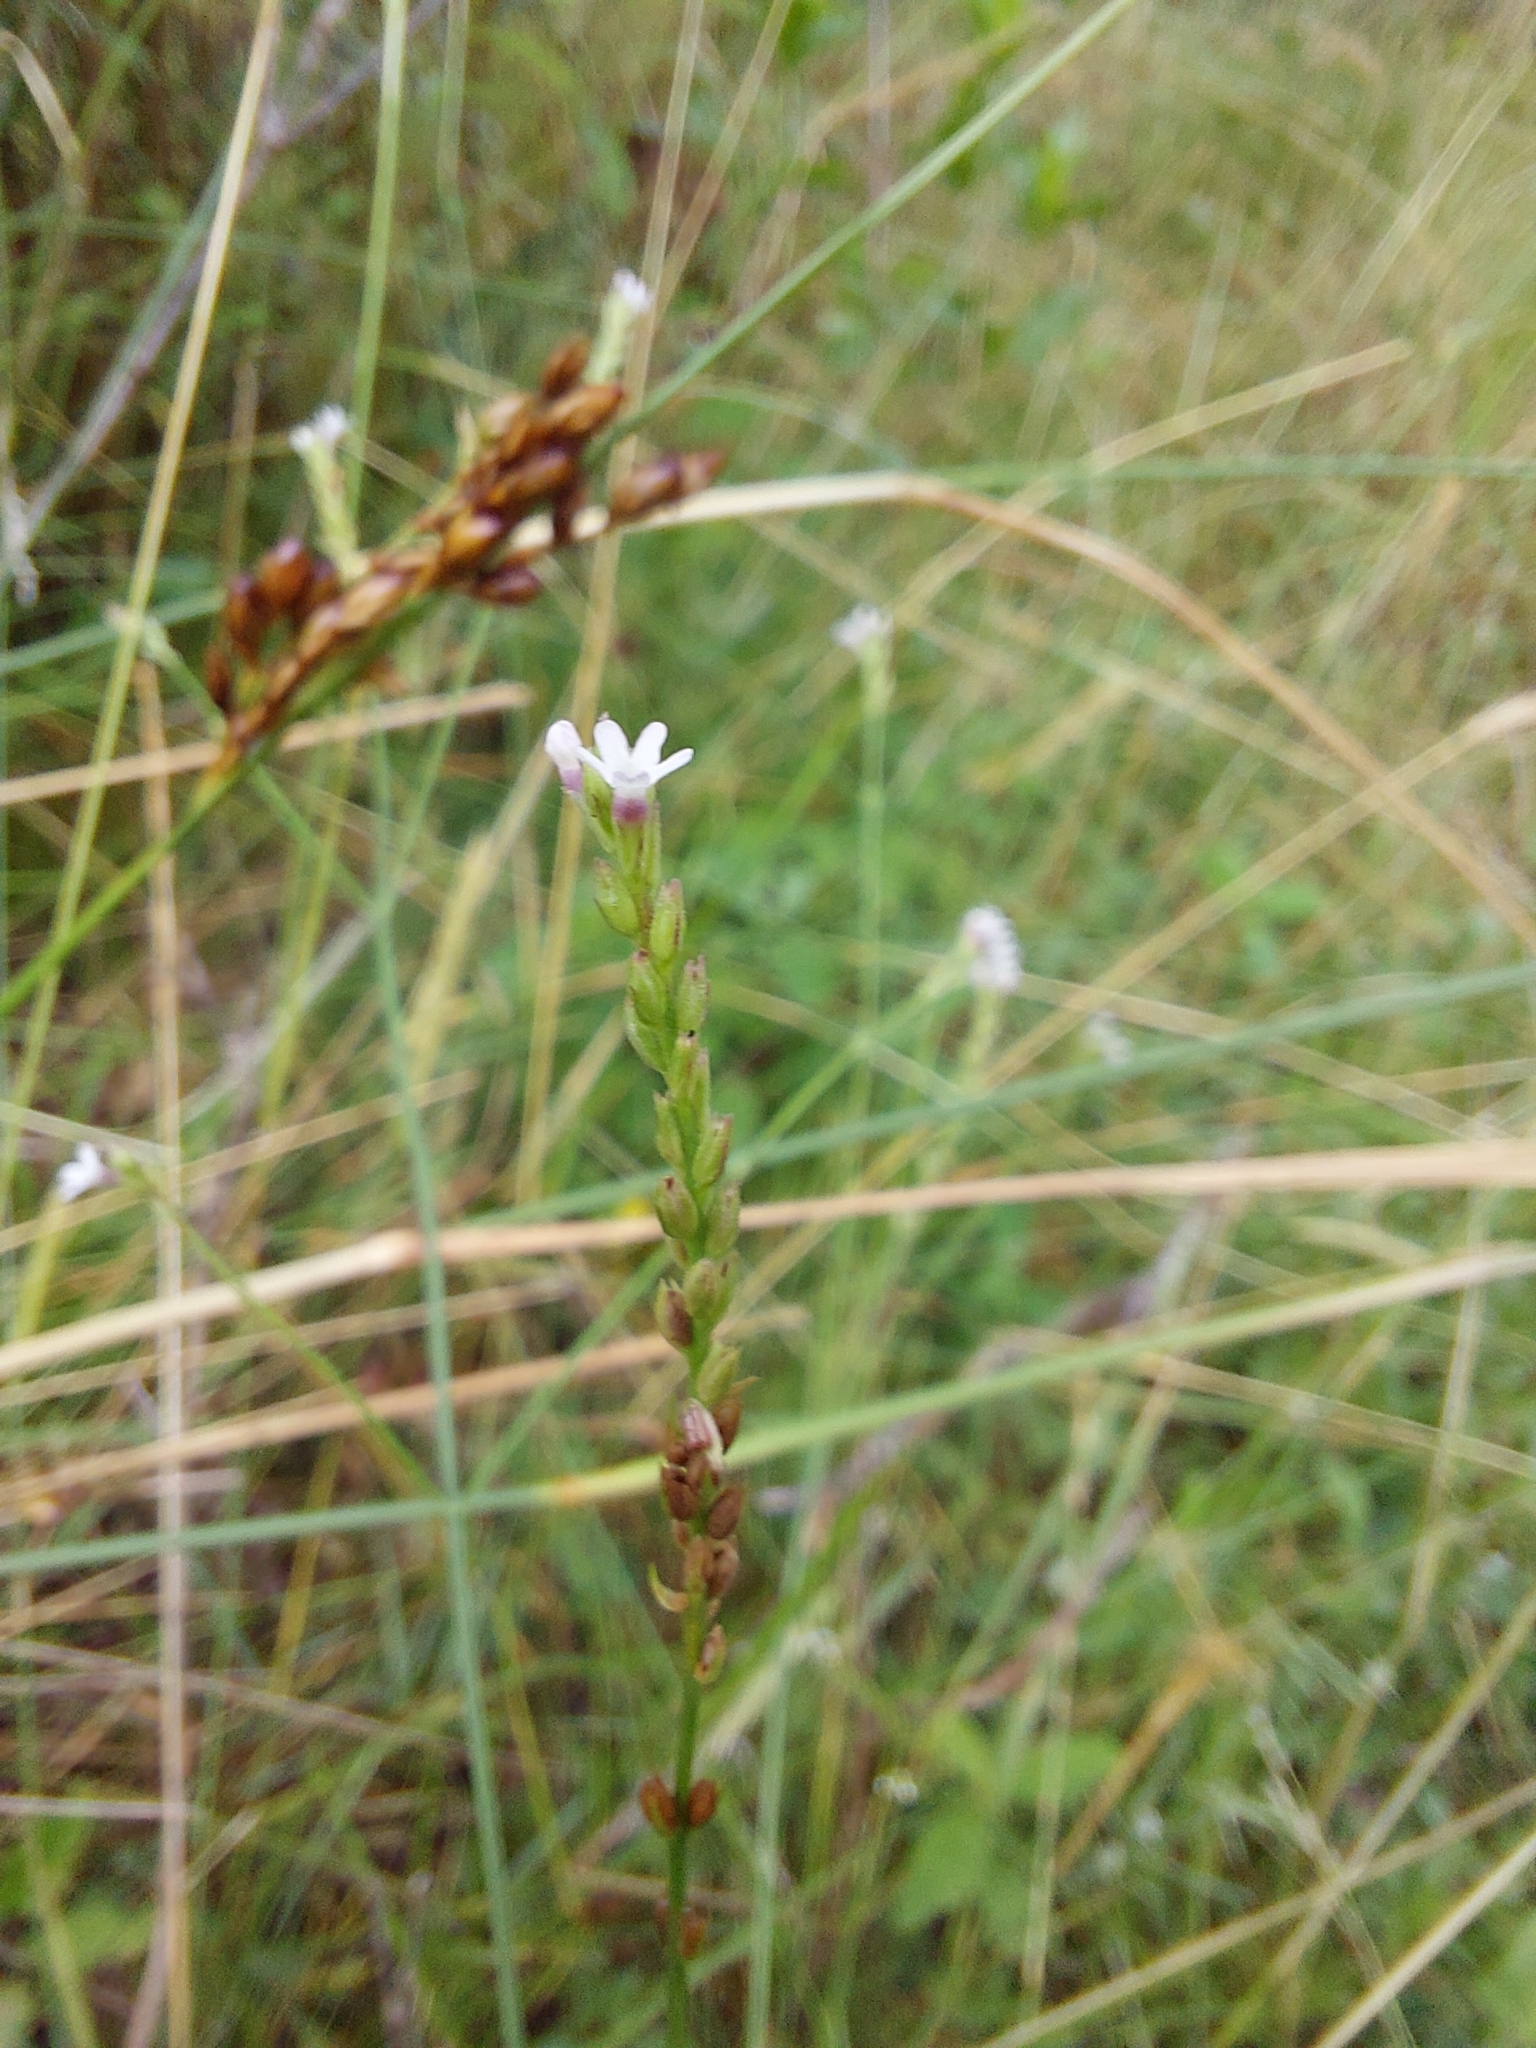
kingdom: Plantae
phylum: Tracheophyta
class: Magnoliopsida
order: Lamiales
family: Verbenaceae
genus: Verbena
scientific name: Verbena gracilescens
